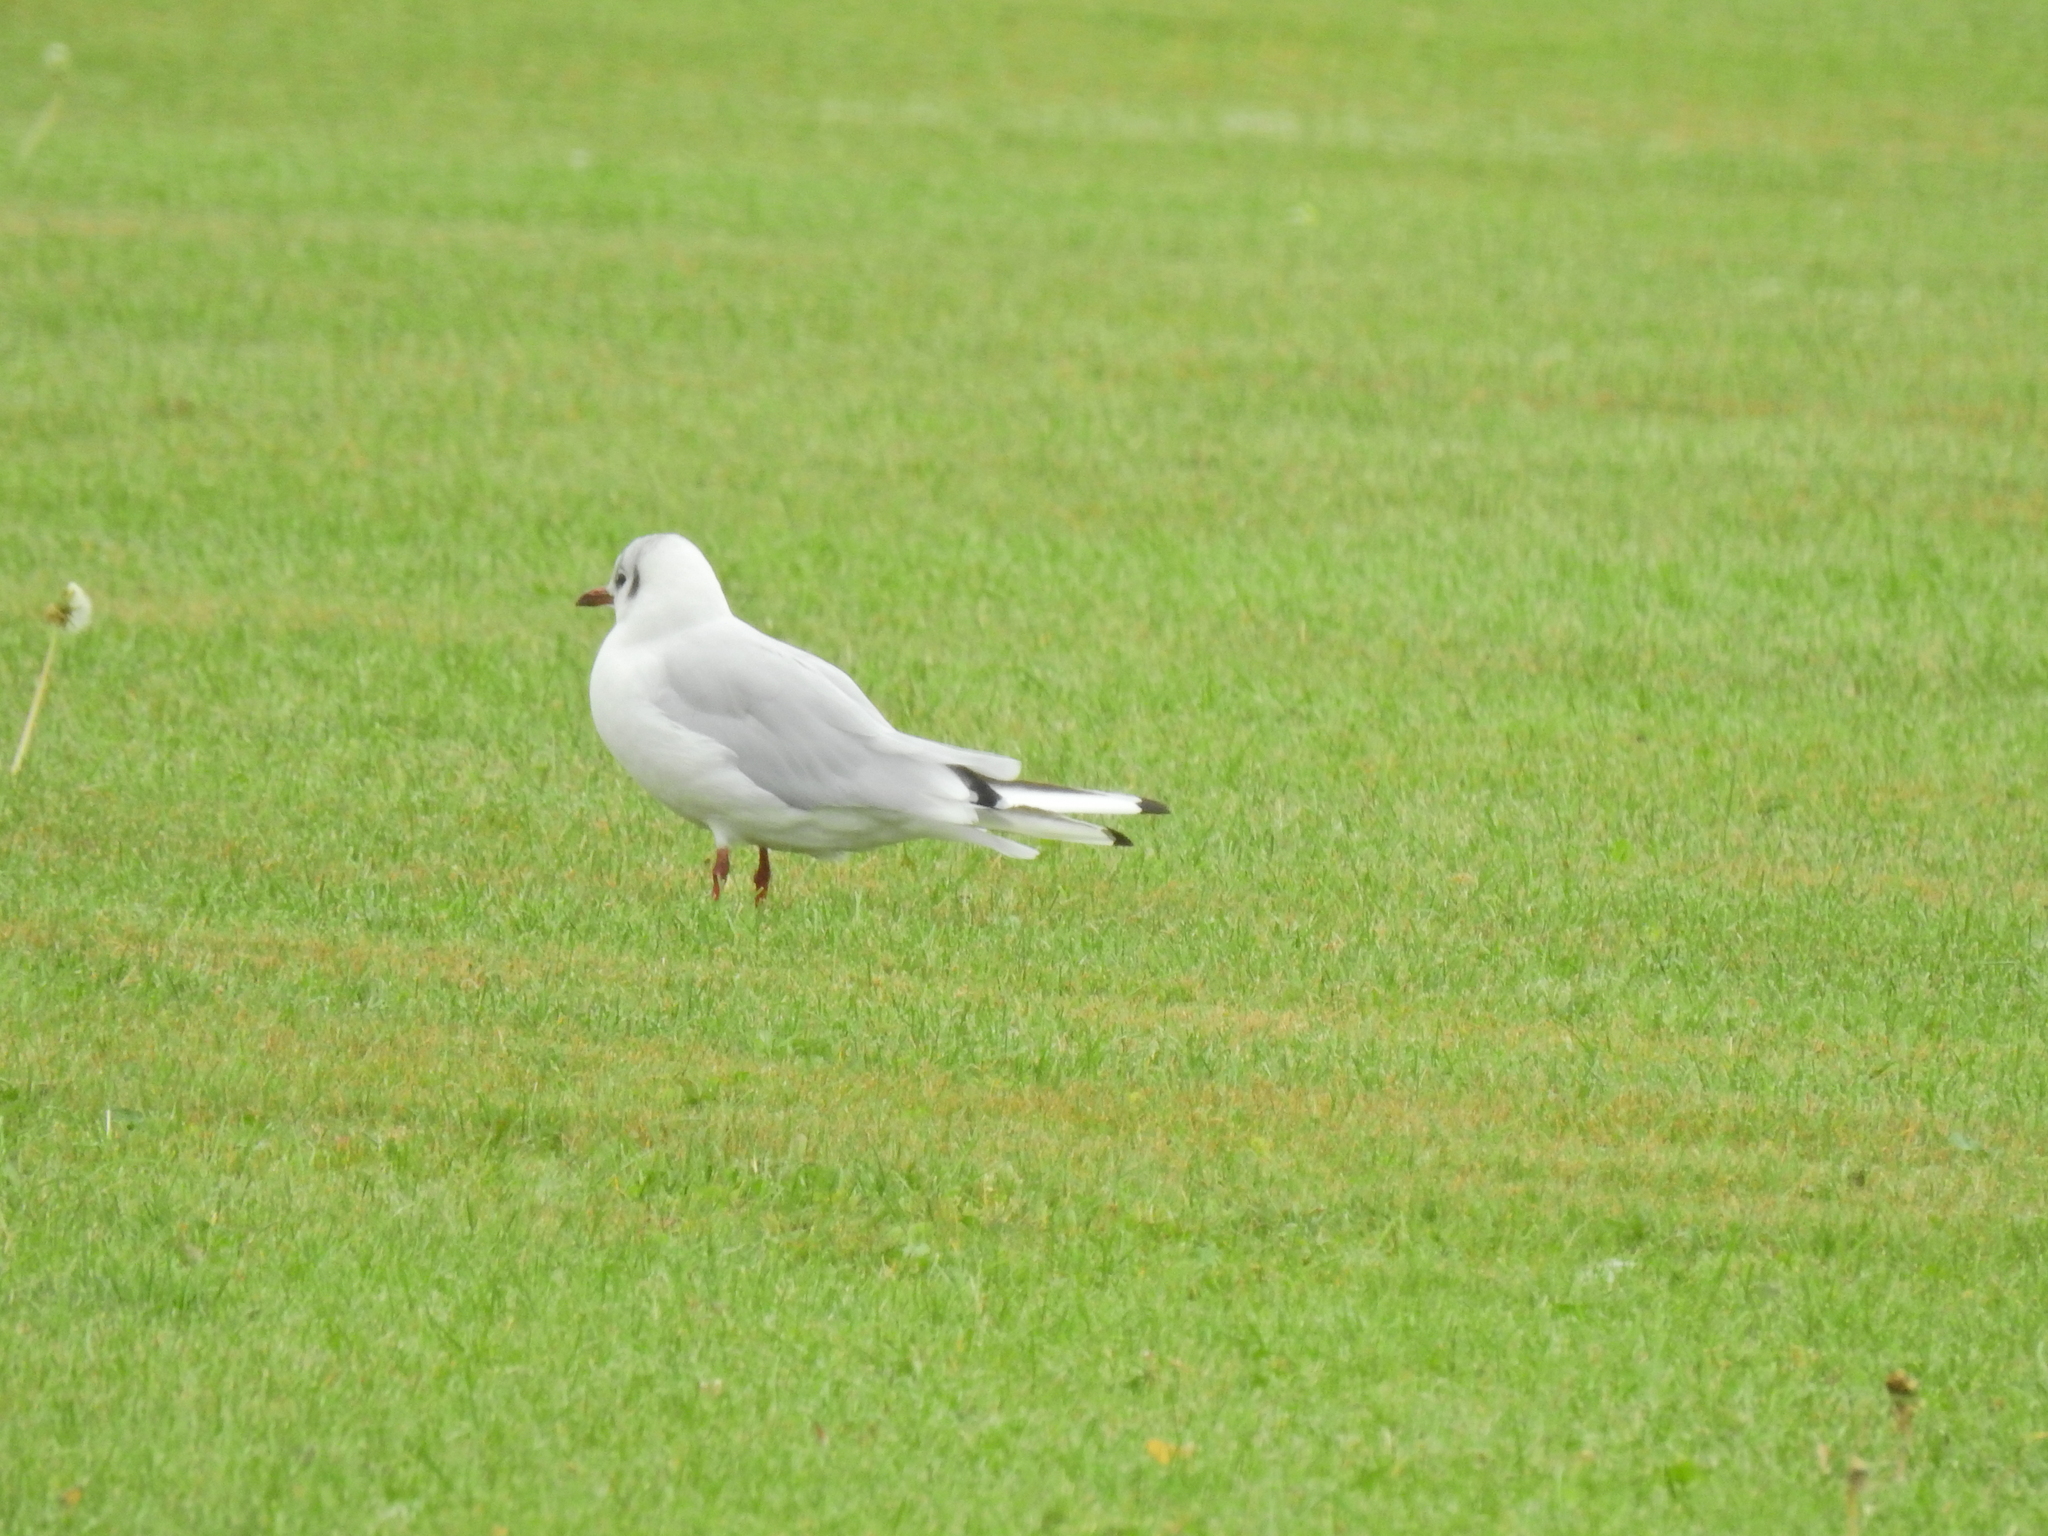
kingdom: Animalia
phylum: Chordata
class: Aves
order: Charadriiformes
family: Laridae
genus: Chroicocephalus
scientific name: Chroicocephalus ridibundus
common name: Black-headed gull
